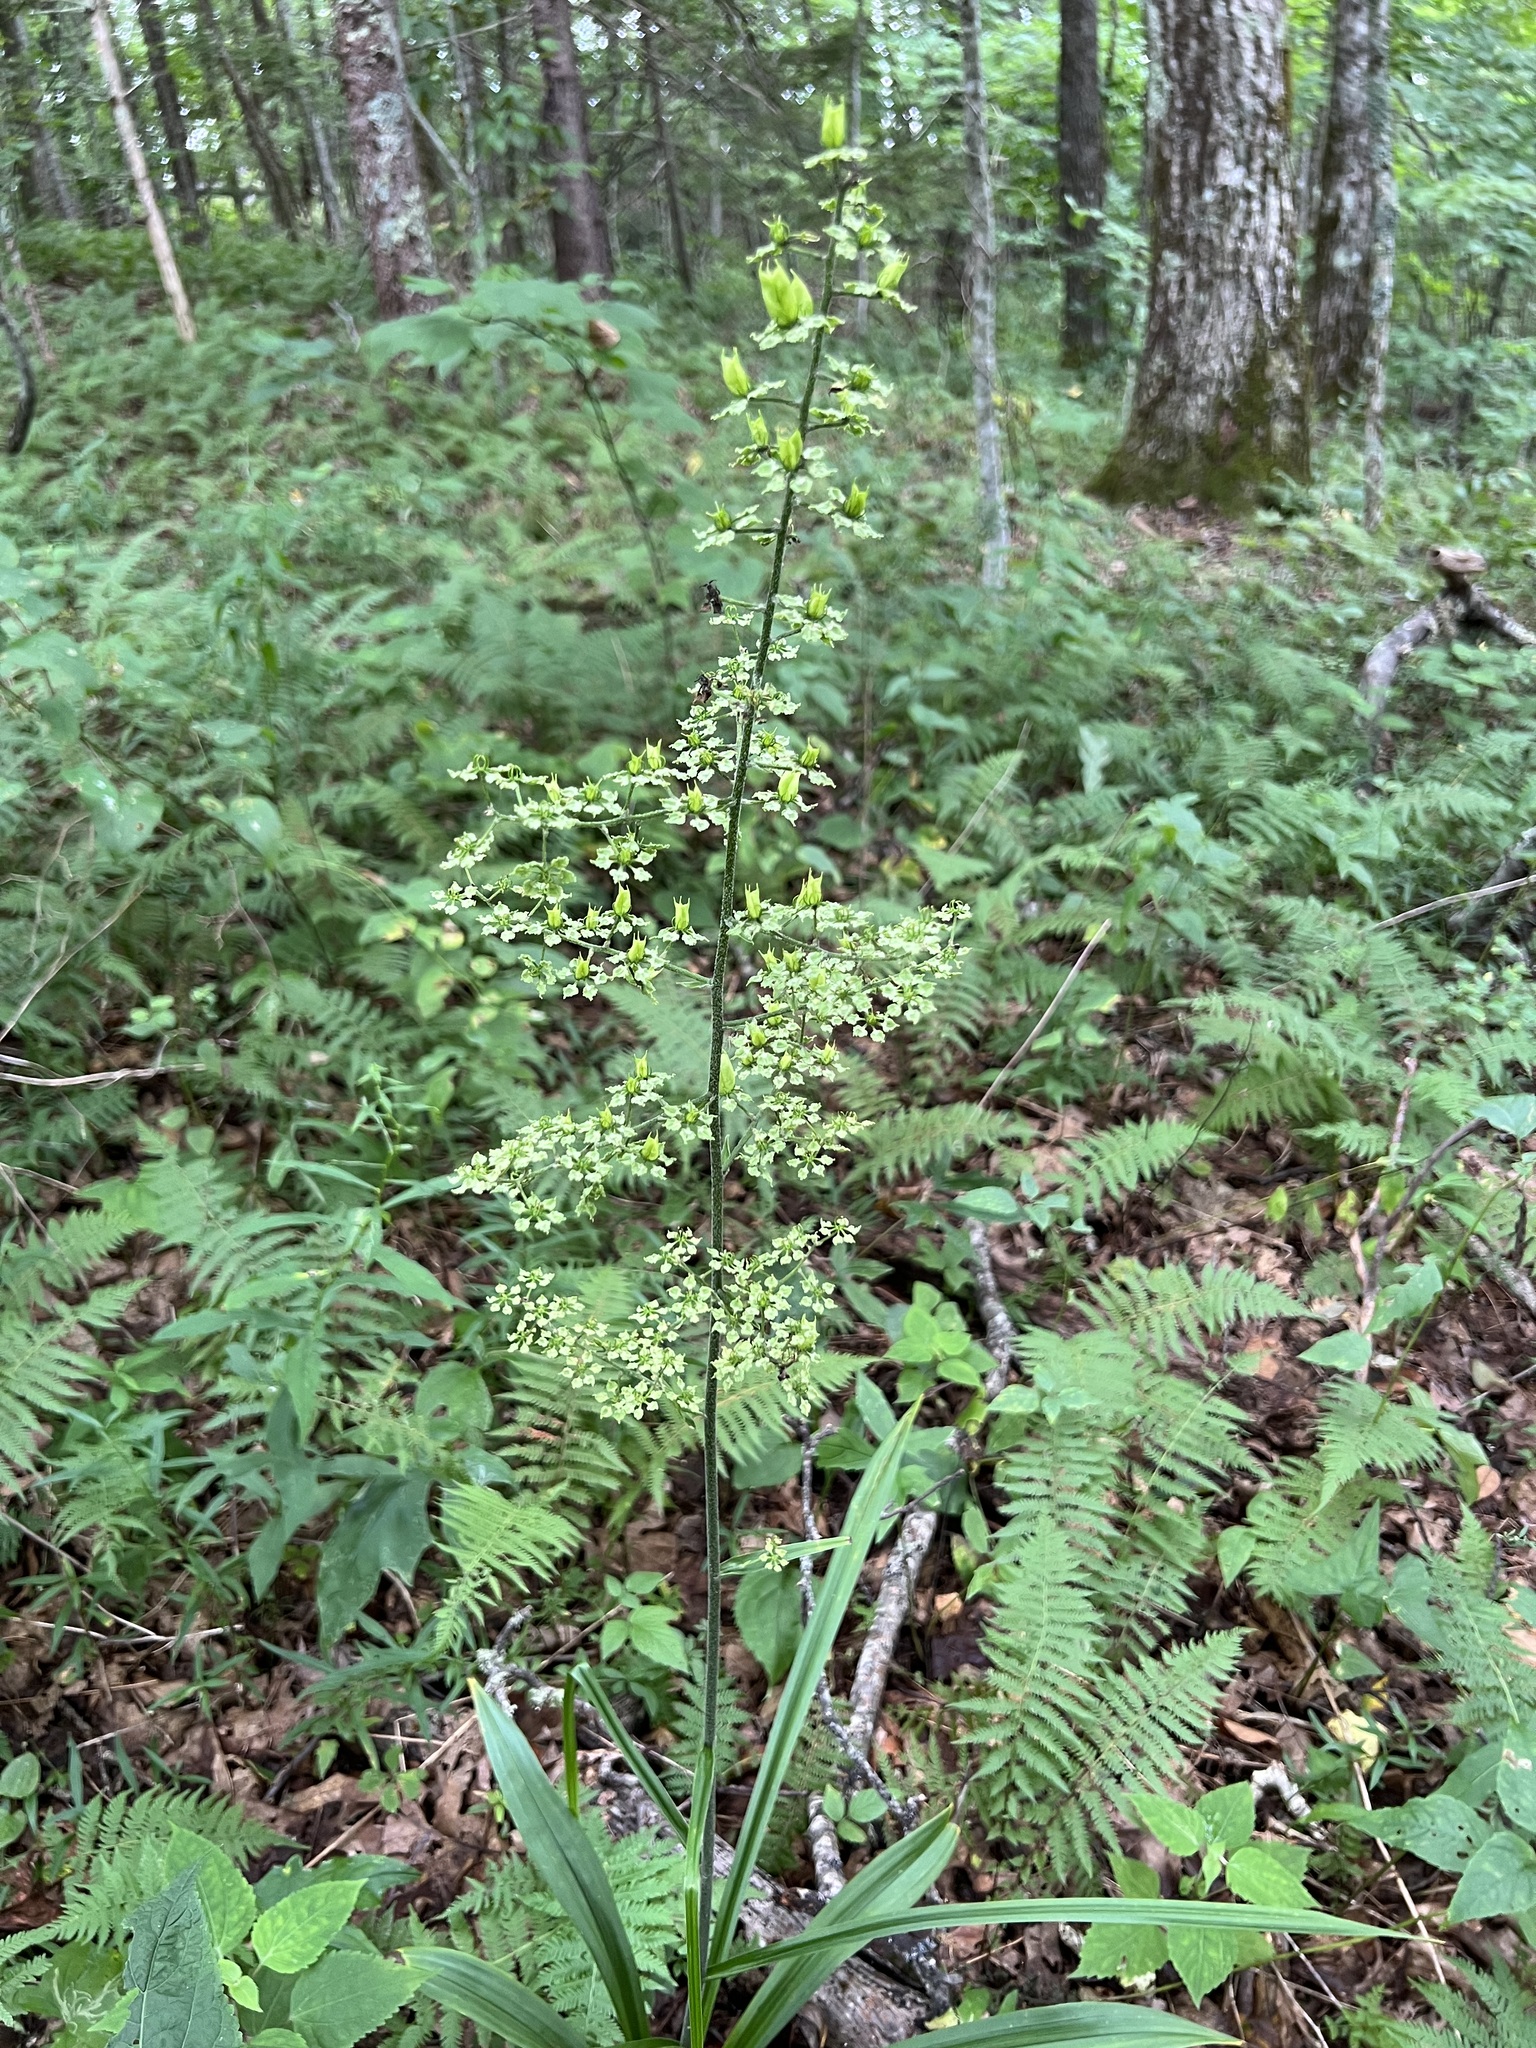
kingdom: Plantae
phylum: Tracheophyta
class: Liliopsida
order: Liliales
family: Melanthiaceae
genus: Veratrum
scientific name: Veratrum hybridum
